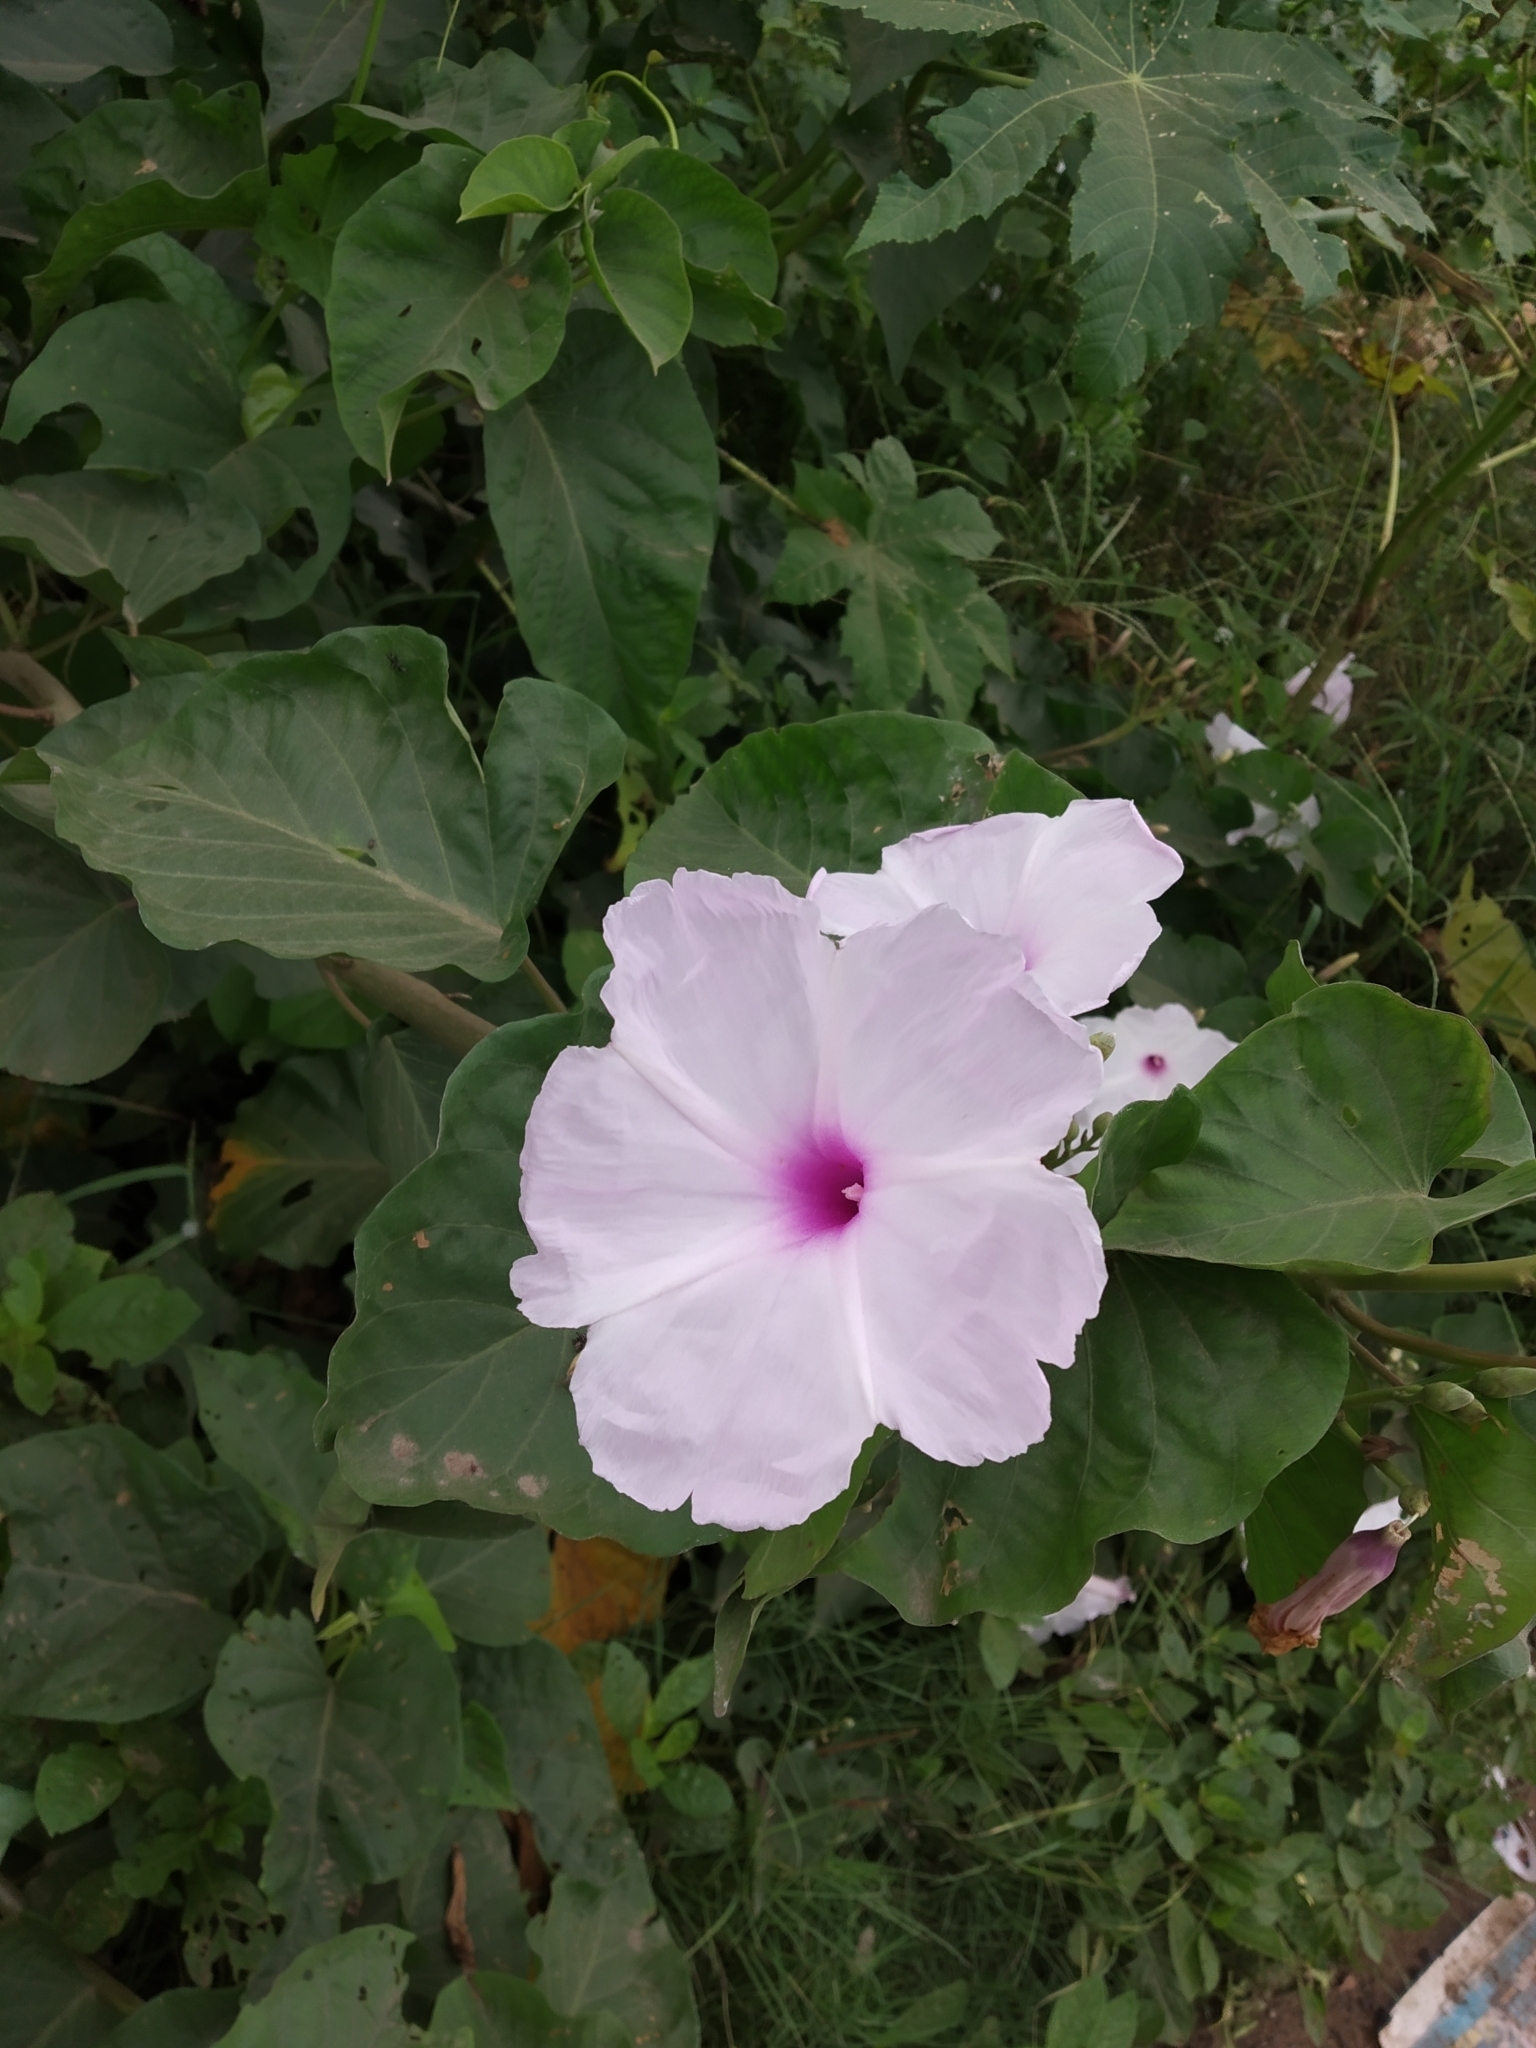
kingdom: Plantae
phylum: Tracheophyta
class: Magnoliopsida
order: Solanales
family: Convolvulaceae
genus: Ipomoea
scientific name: Ipomoea carnea
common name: Morning-glory
